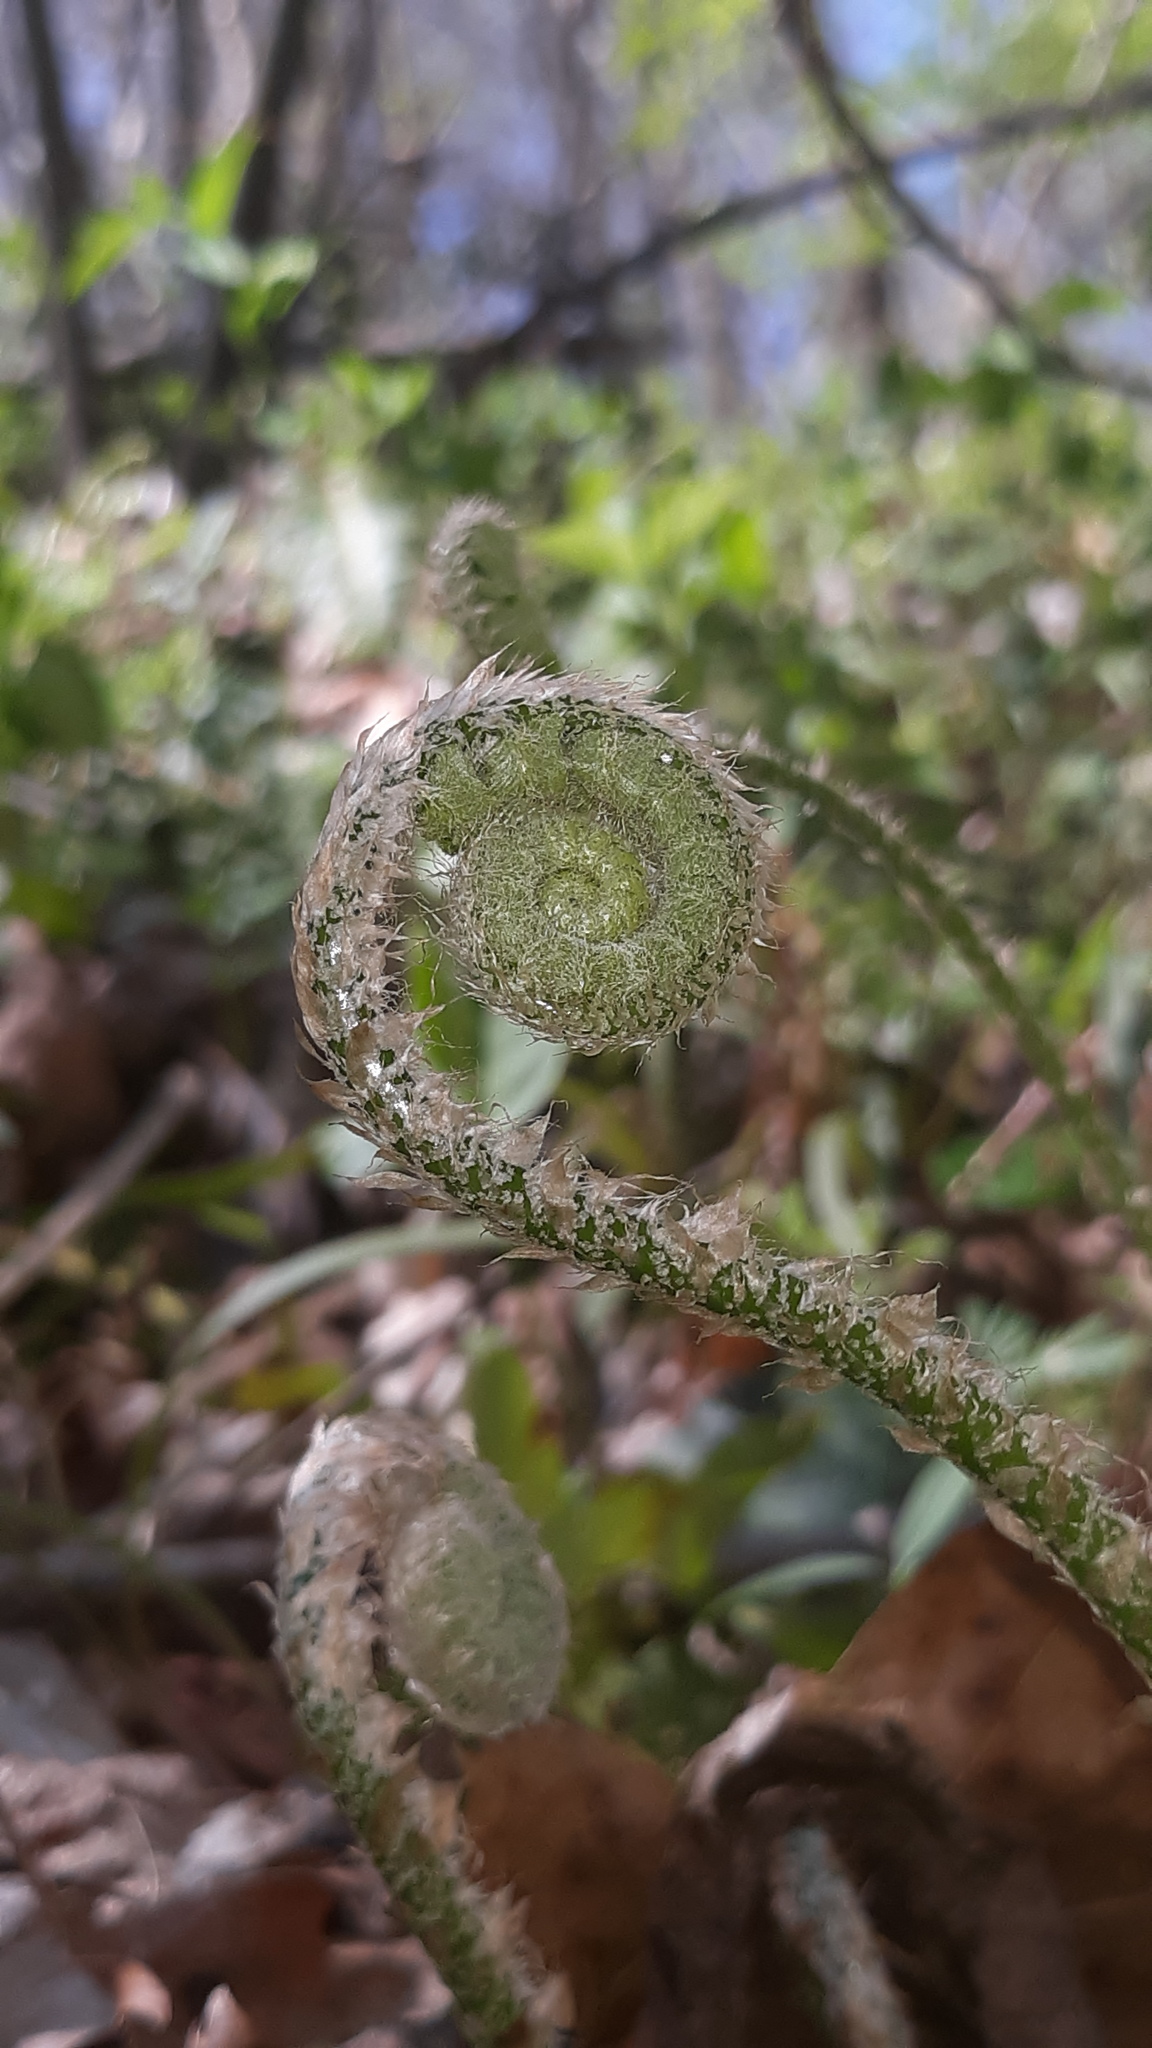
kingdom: Plantae
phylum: Tracheophyta
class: Polypodiopsida
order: Polypodiales
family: Dryopteridaceae
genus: Polystichum
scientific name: Polystichum acrostichoides
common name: Christmas fern
